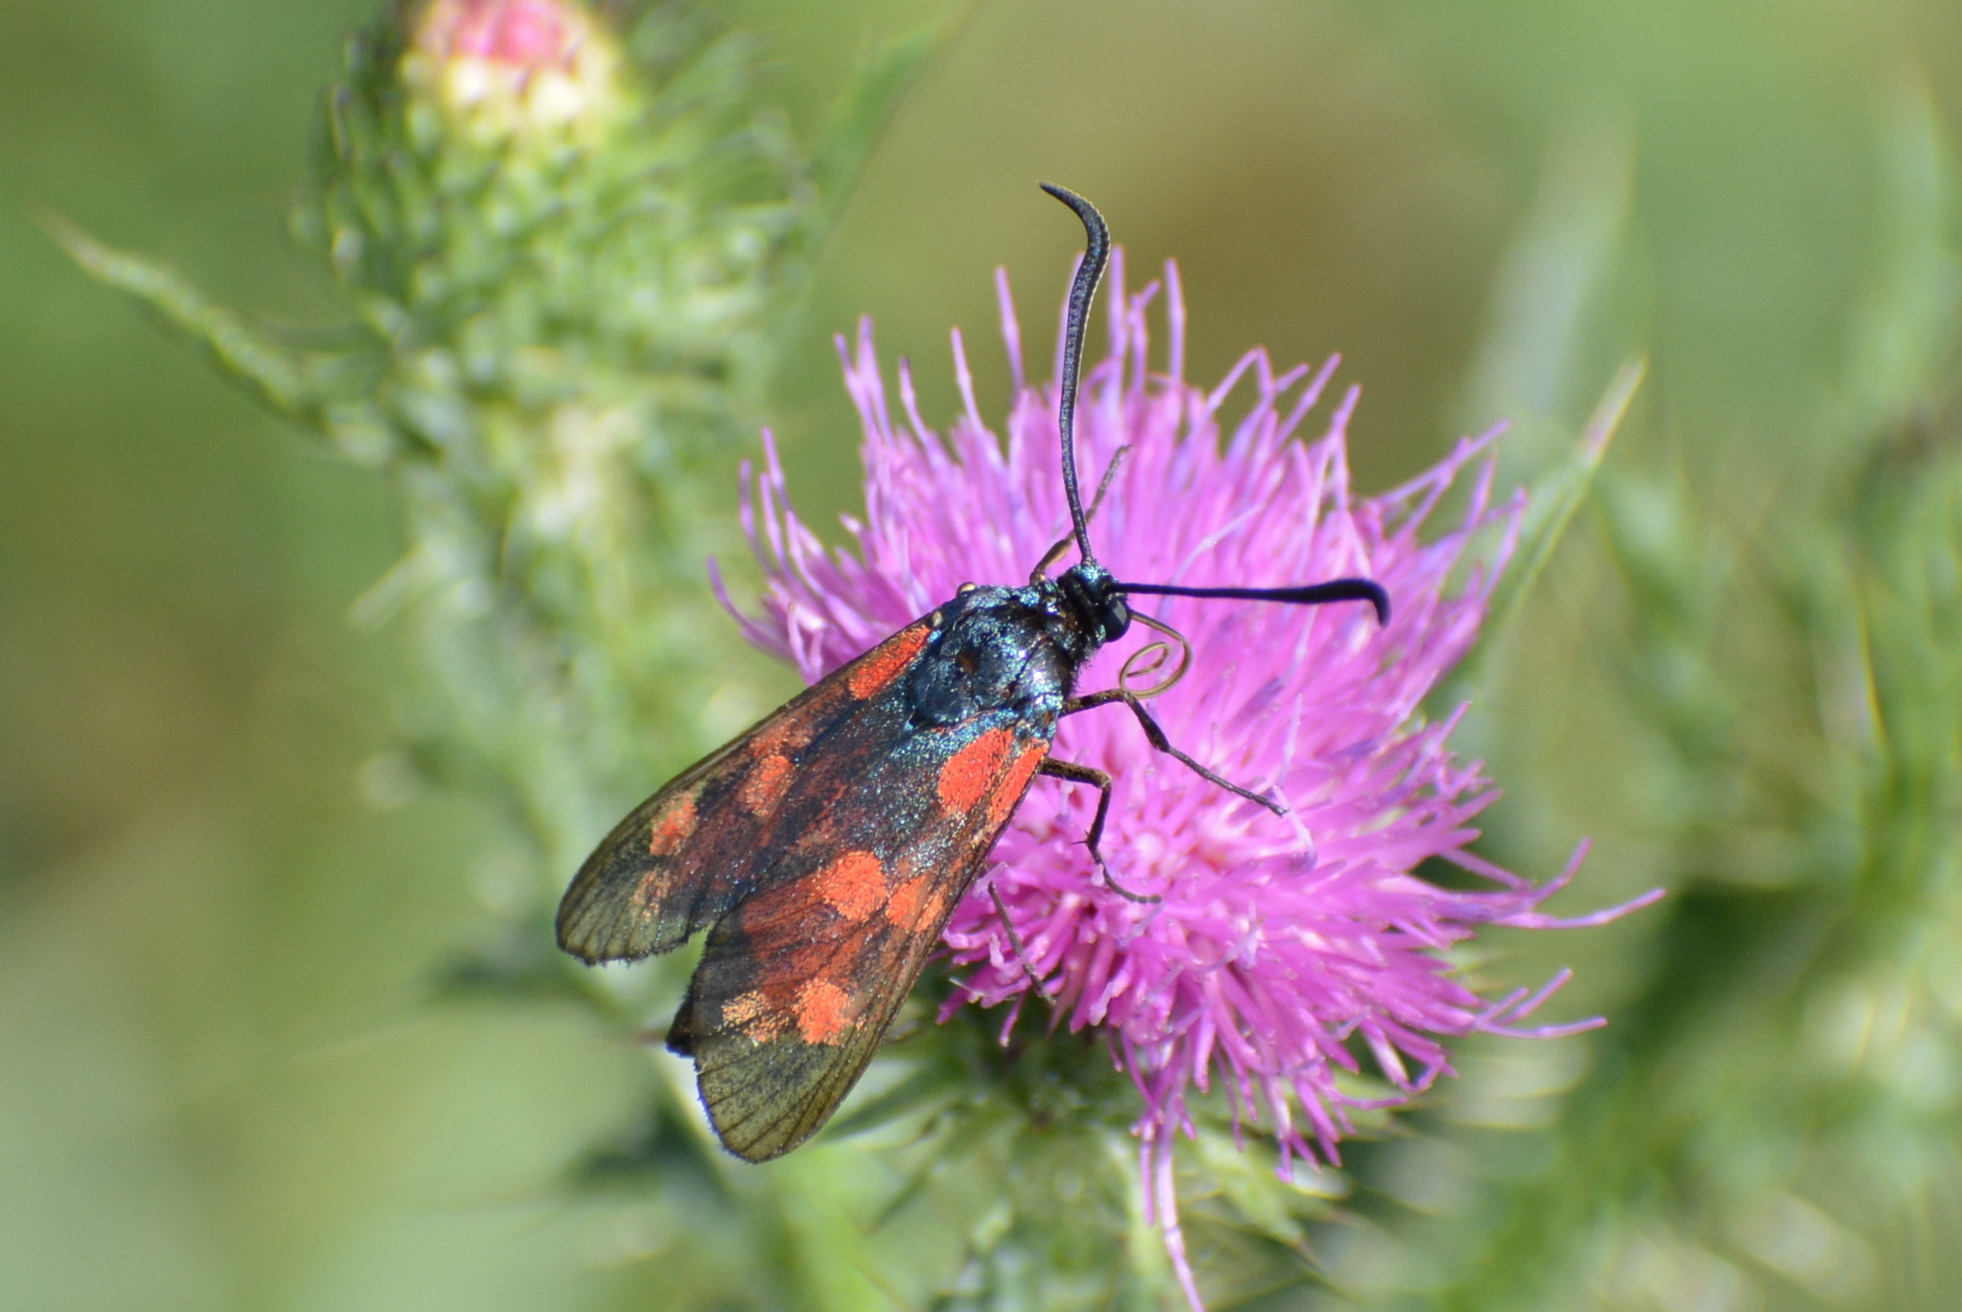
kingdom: Animalia
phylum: Arthropoda
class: Insecta
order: Lepidoptera
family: Zygaenidae
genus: Zygaena
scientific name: Zygaena filipendulae
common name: Six-spot burnet
